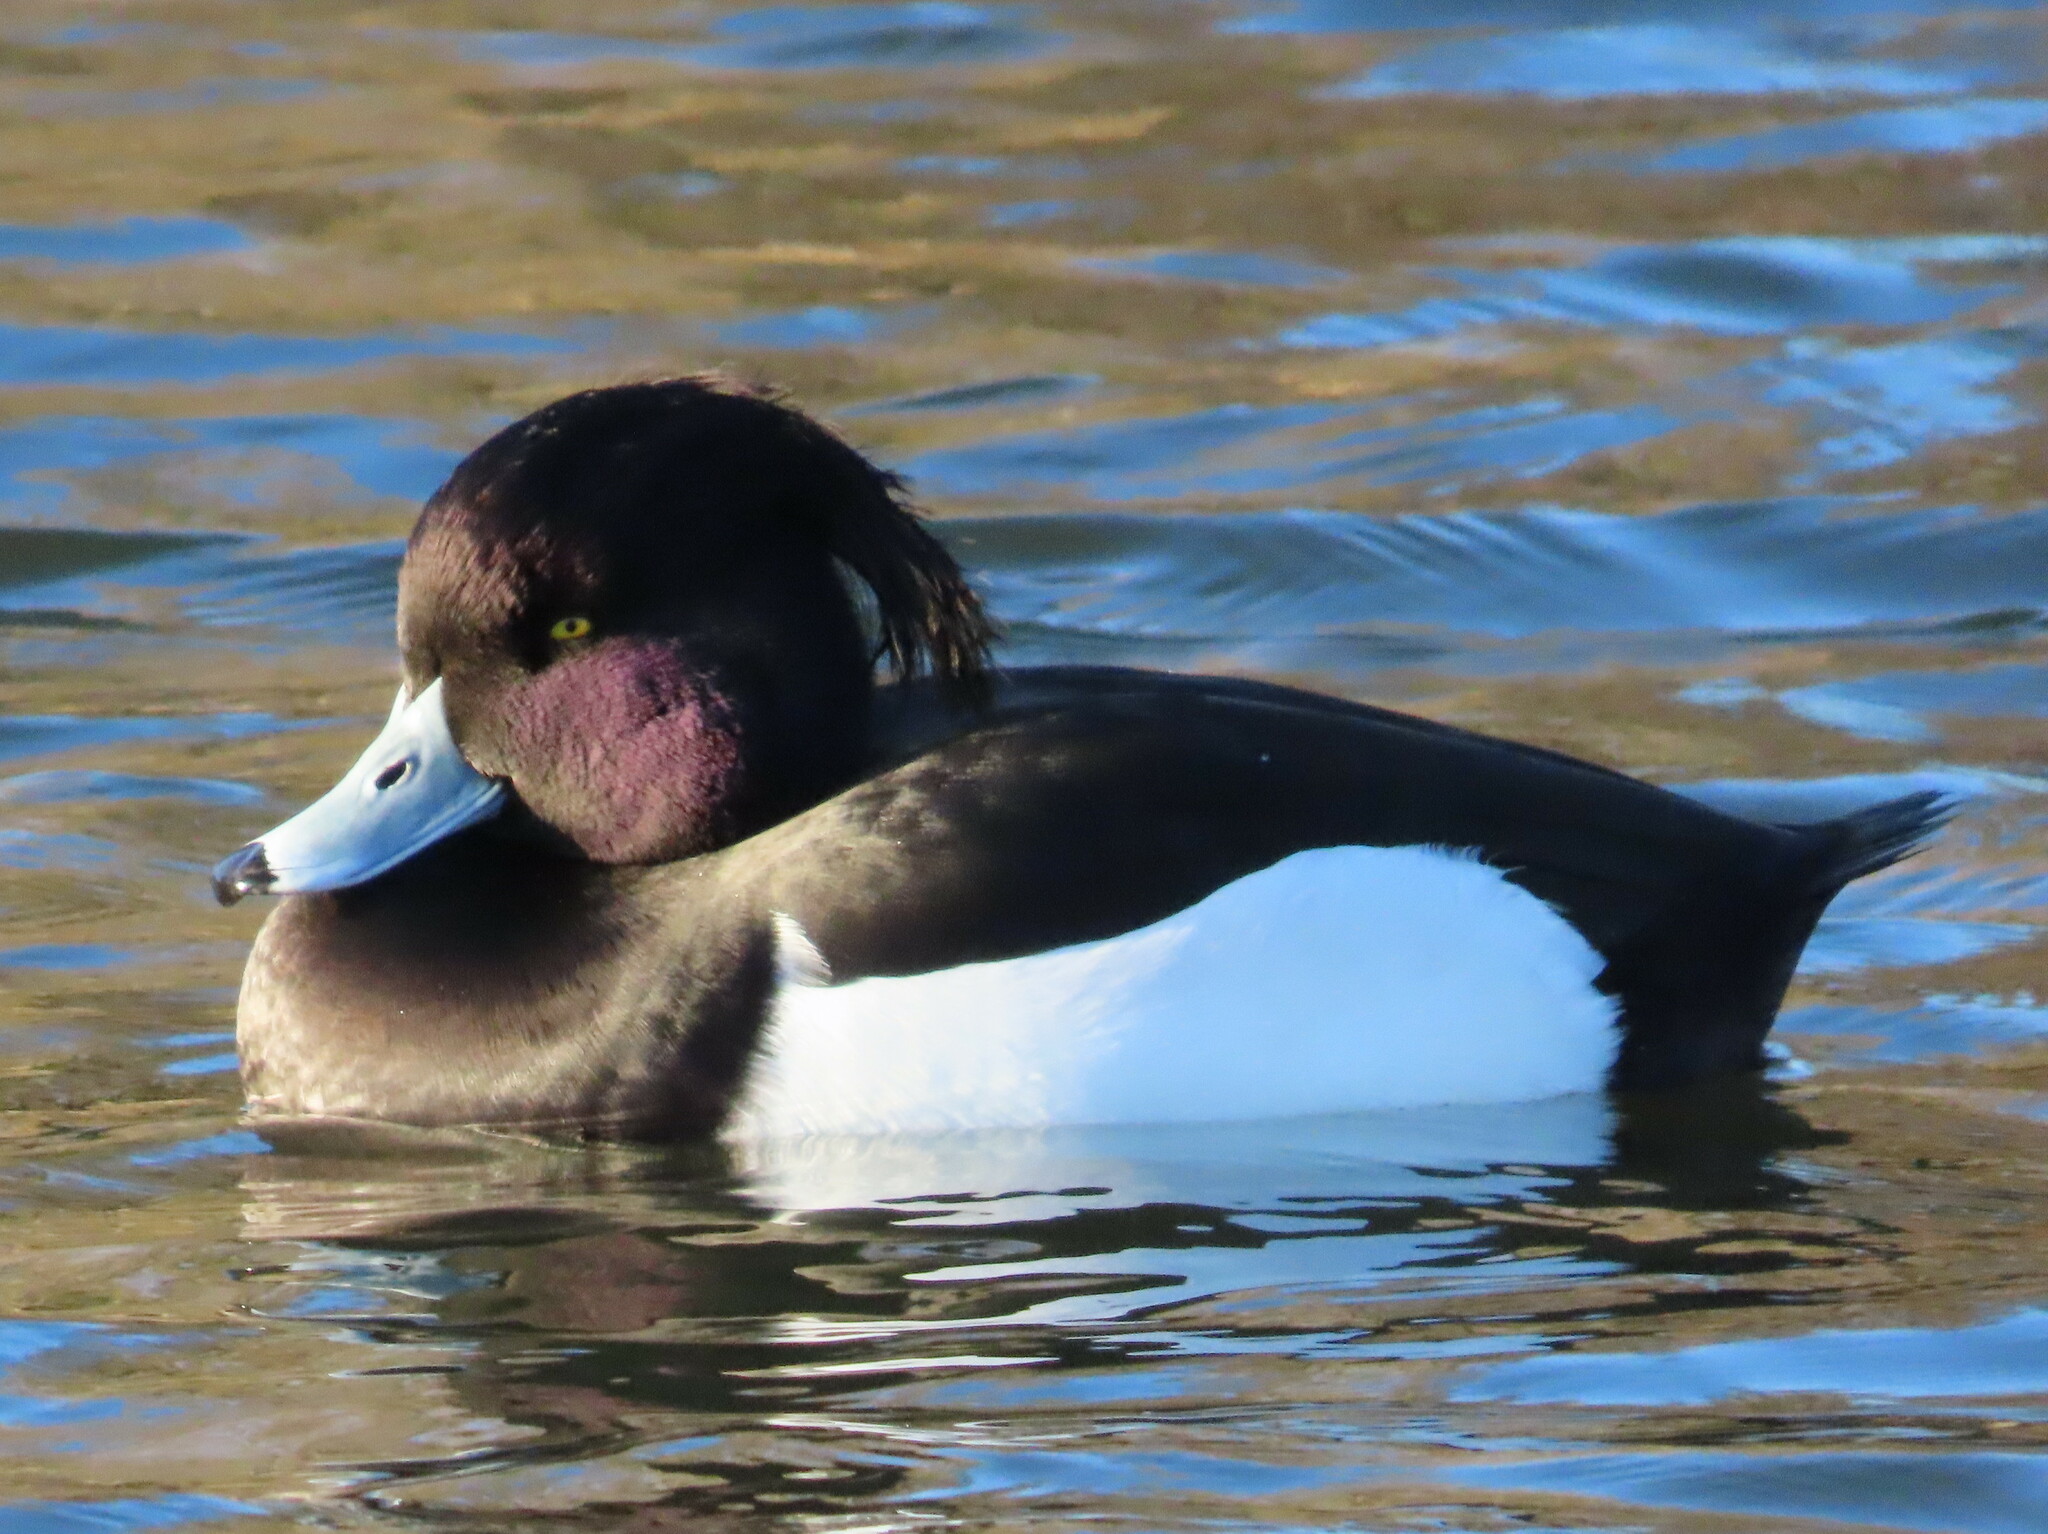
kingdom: Animalia
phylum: Chordata
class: Aves
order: Anseriformes
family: Anatidae
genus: Aythya
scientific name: Aythya fuligula
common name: Tufted duck
